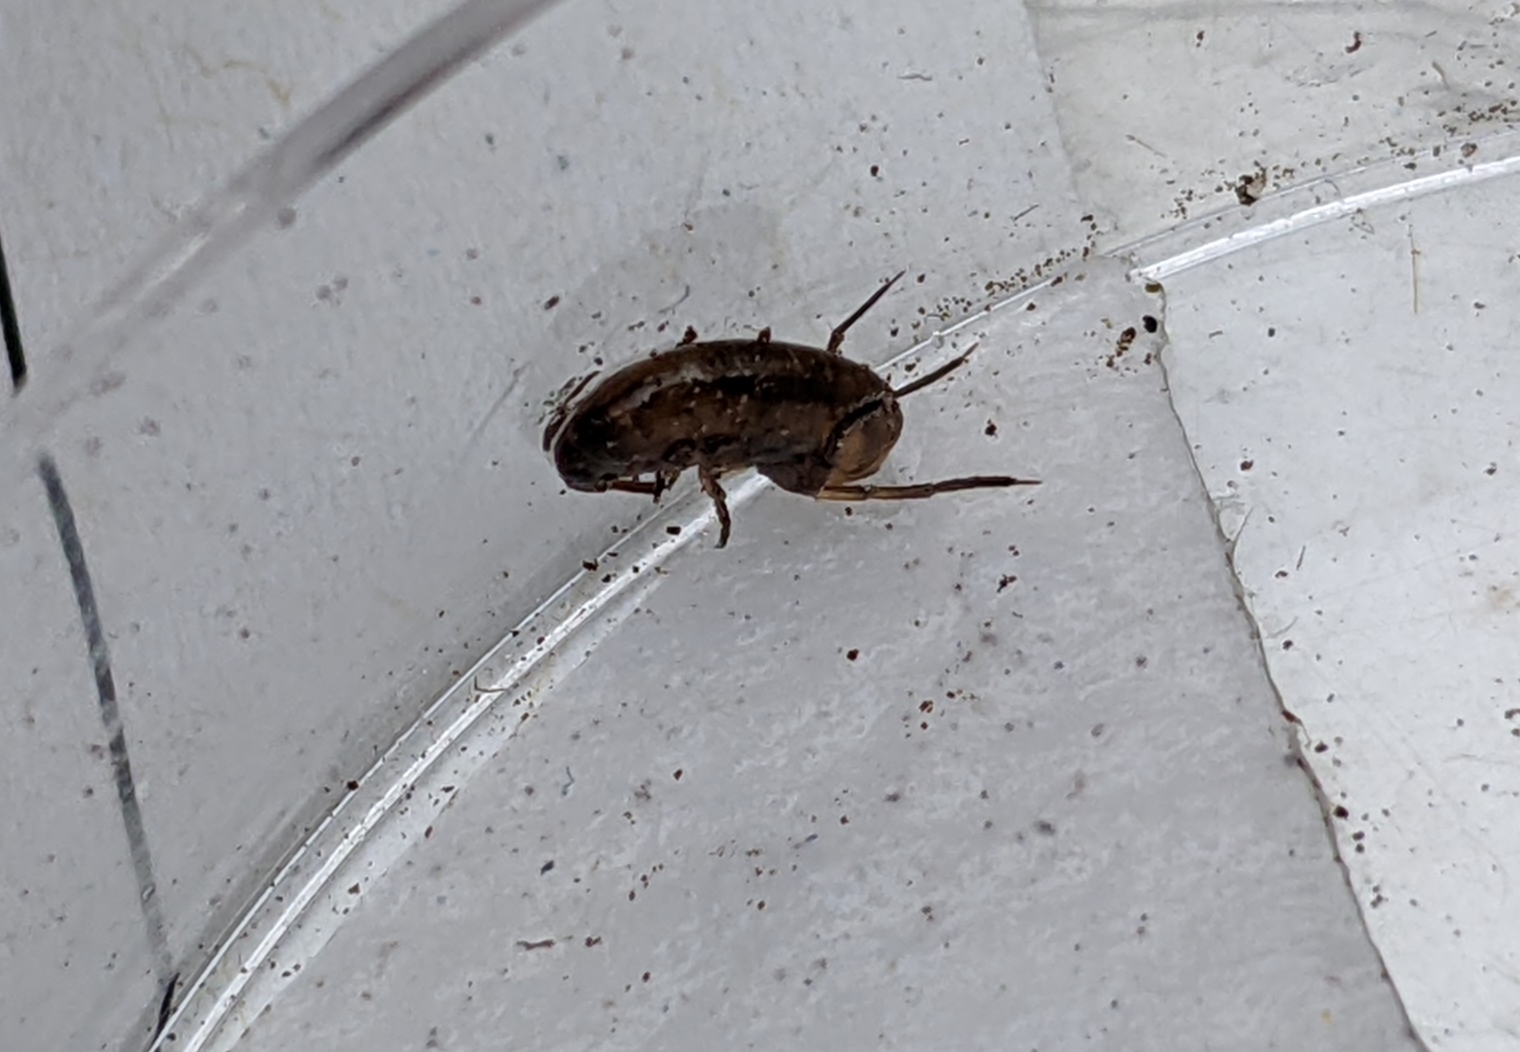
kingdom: Animalia
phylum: Arthropoda
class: Malacostraca
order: Amphipoda
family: Arcitalitridae
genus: Arcitalitrus
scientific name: Arcitalitrus dorrieni
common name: Landhopper
